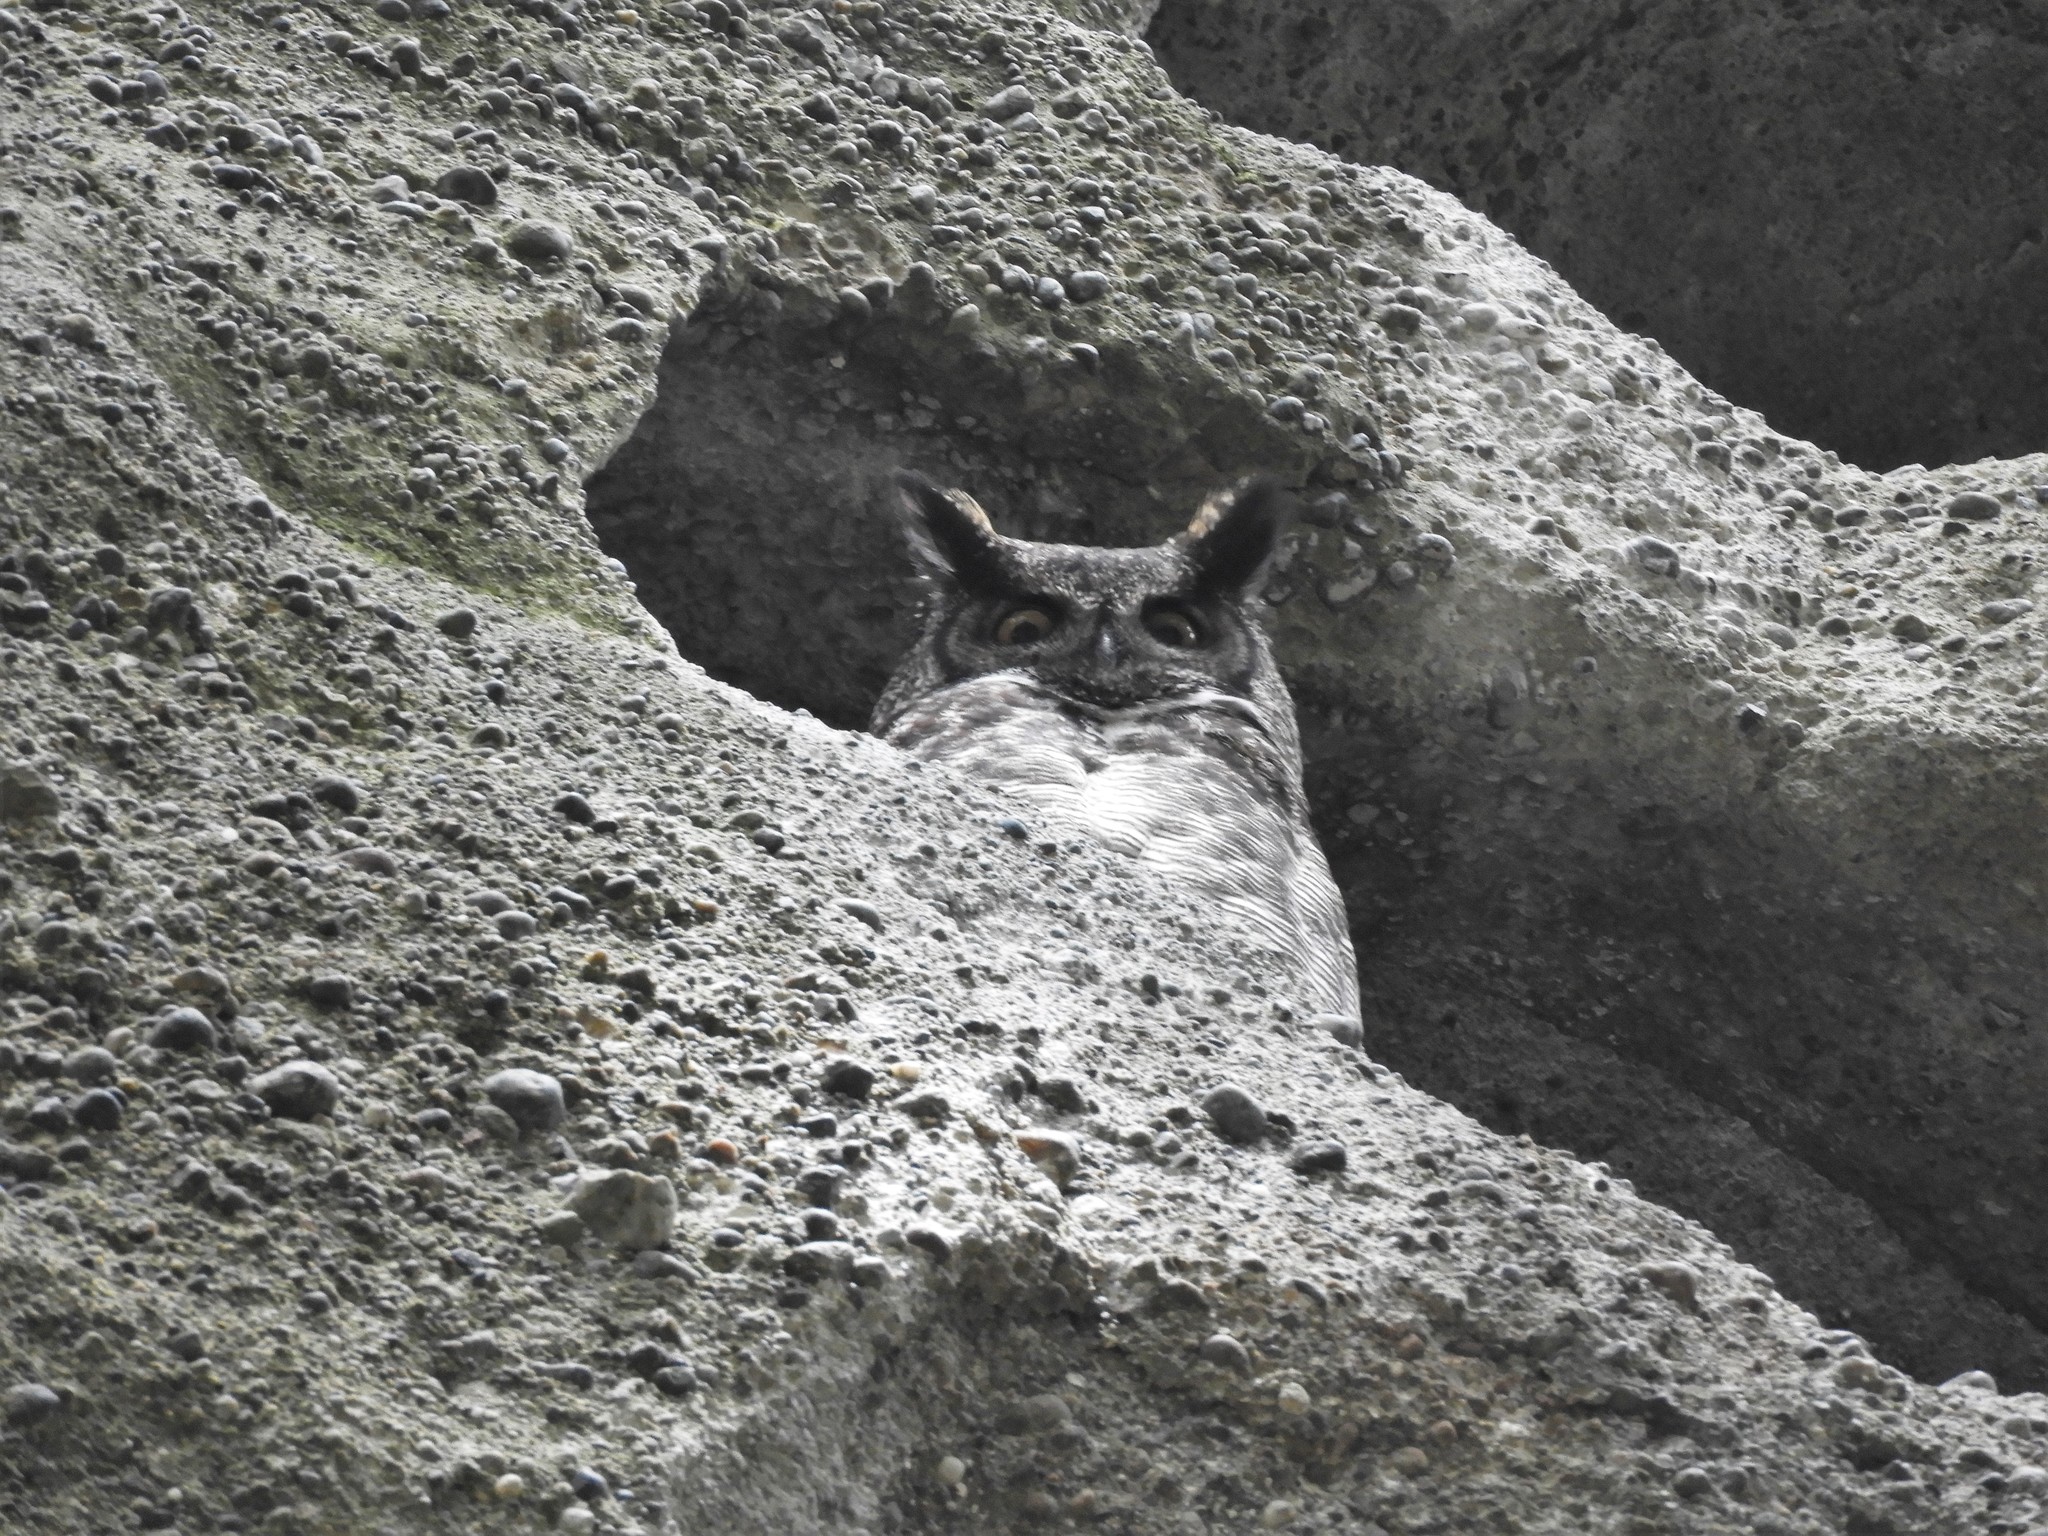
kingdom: Animalia
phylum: Chordata
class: Aves
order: Strigiformes
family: Strigidae
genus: Bubo
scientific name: Bubo virginianus
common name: Great horned owl
